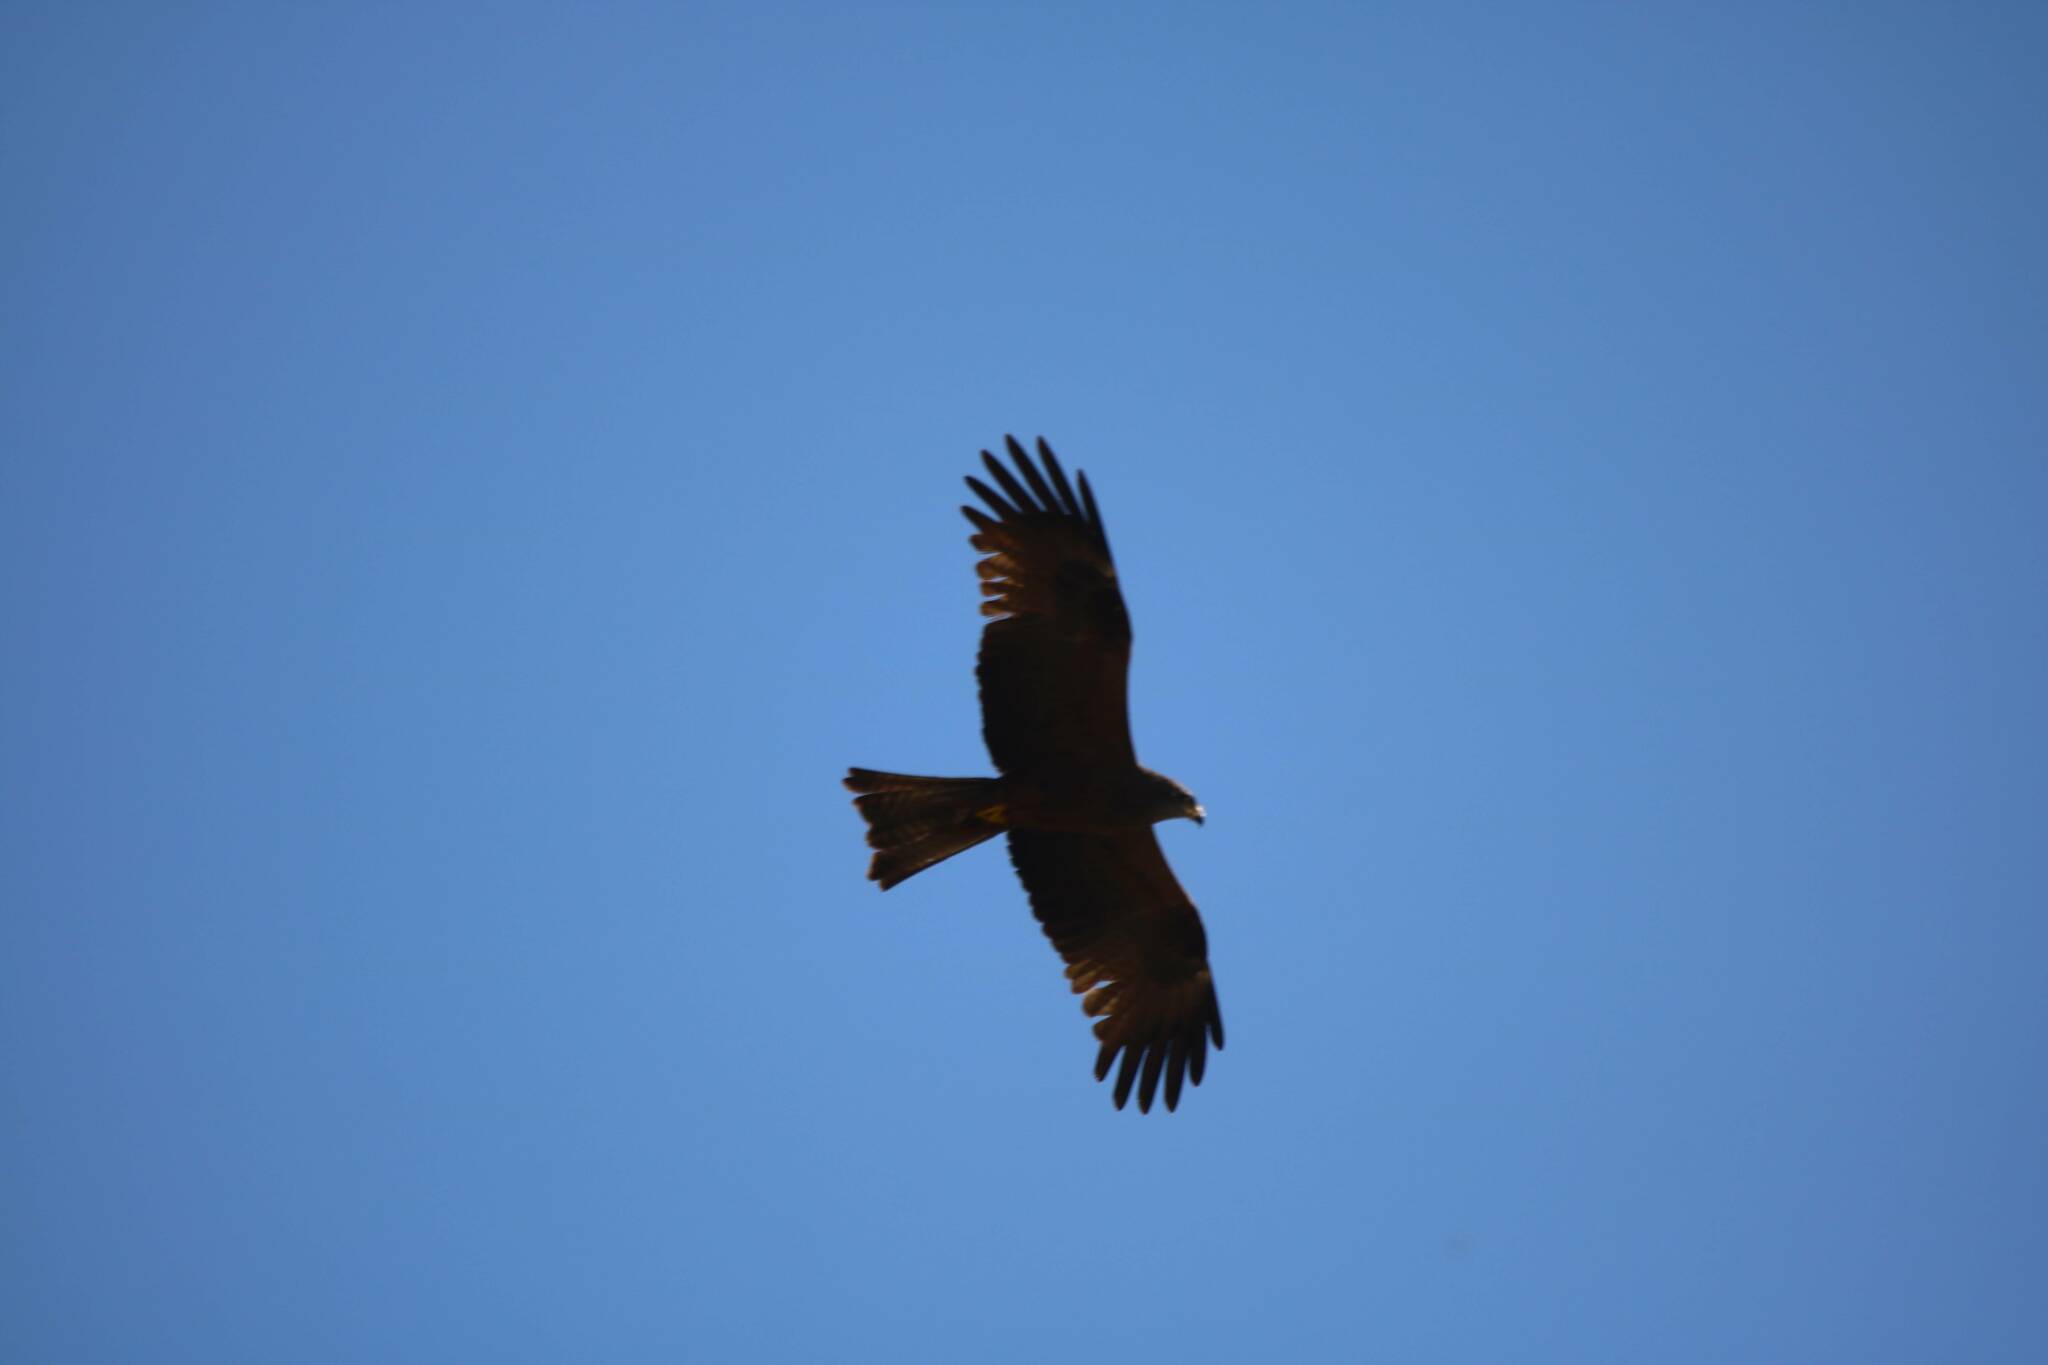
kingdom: Animalia
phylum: Chordata
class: Aves
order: Accipitriformes
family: Accipitridae
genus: Milvus
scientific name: Milvus migrans
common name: Black kite
